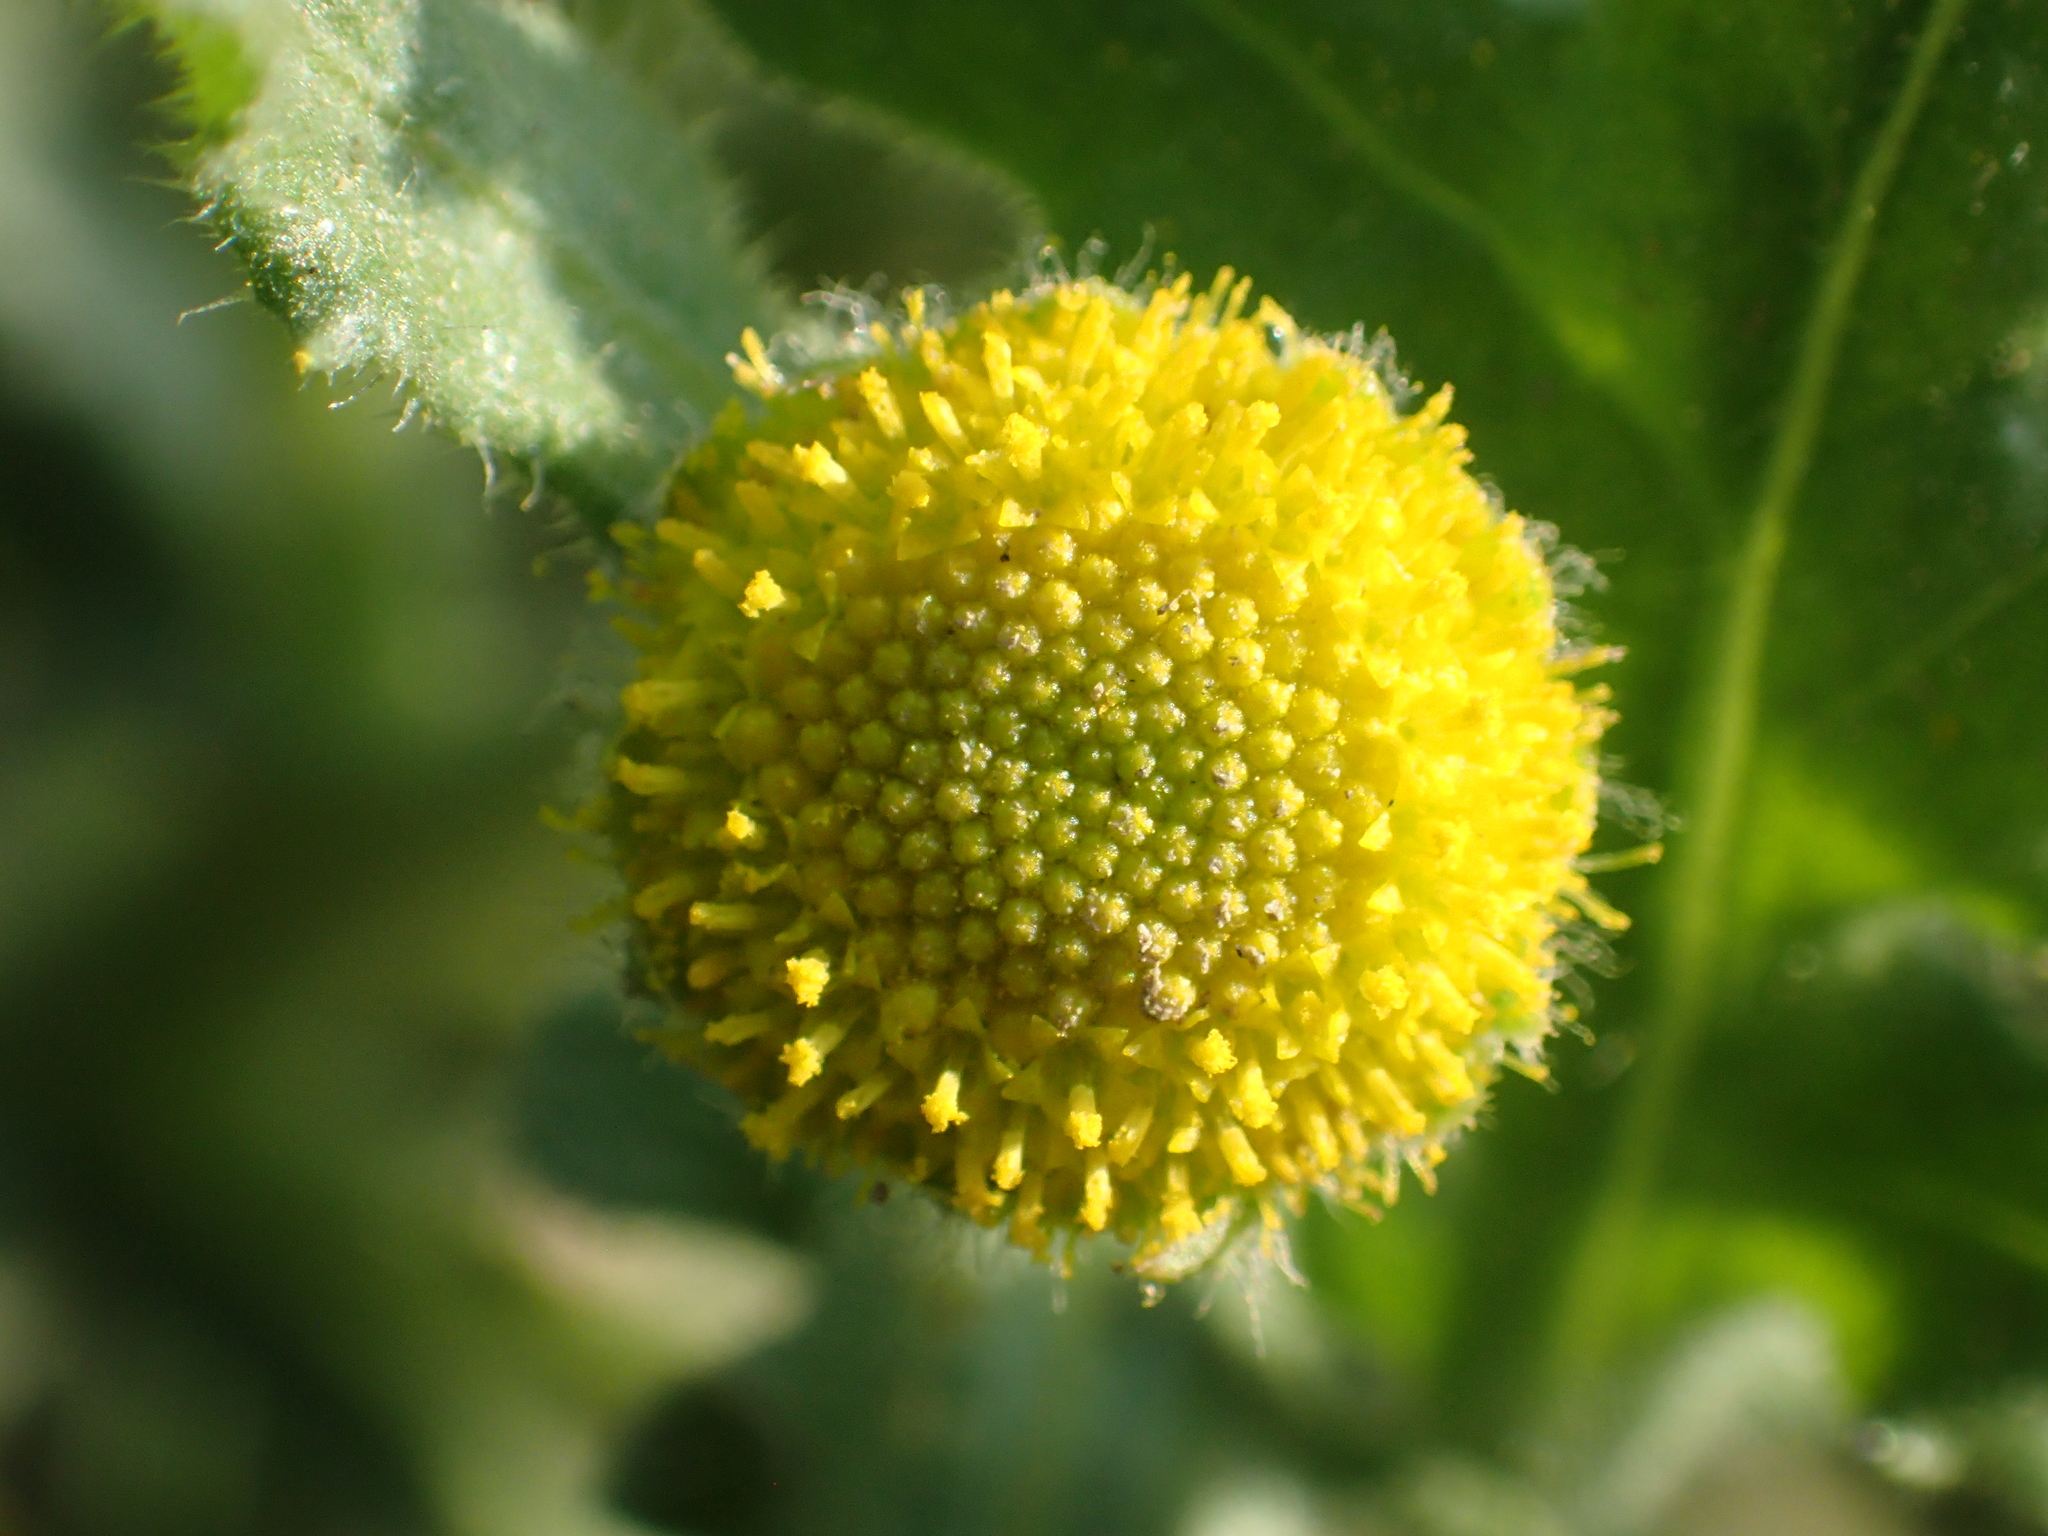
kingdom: Plantae
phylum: Tracheophyta
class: Magnoliopsida
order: Asterales
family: Asteraceae
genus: Grangea
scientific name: Grangea maderaspatana
